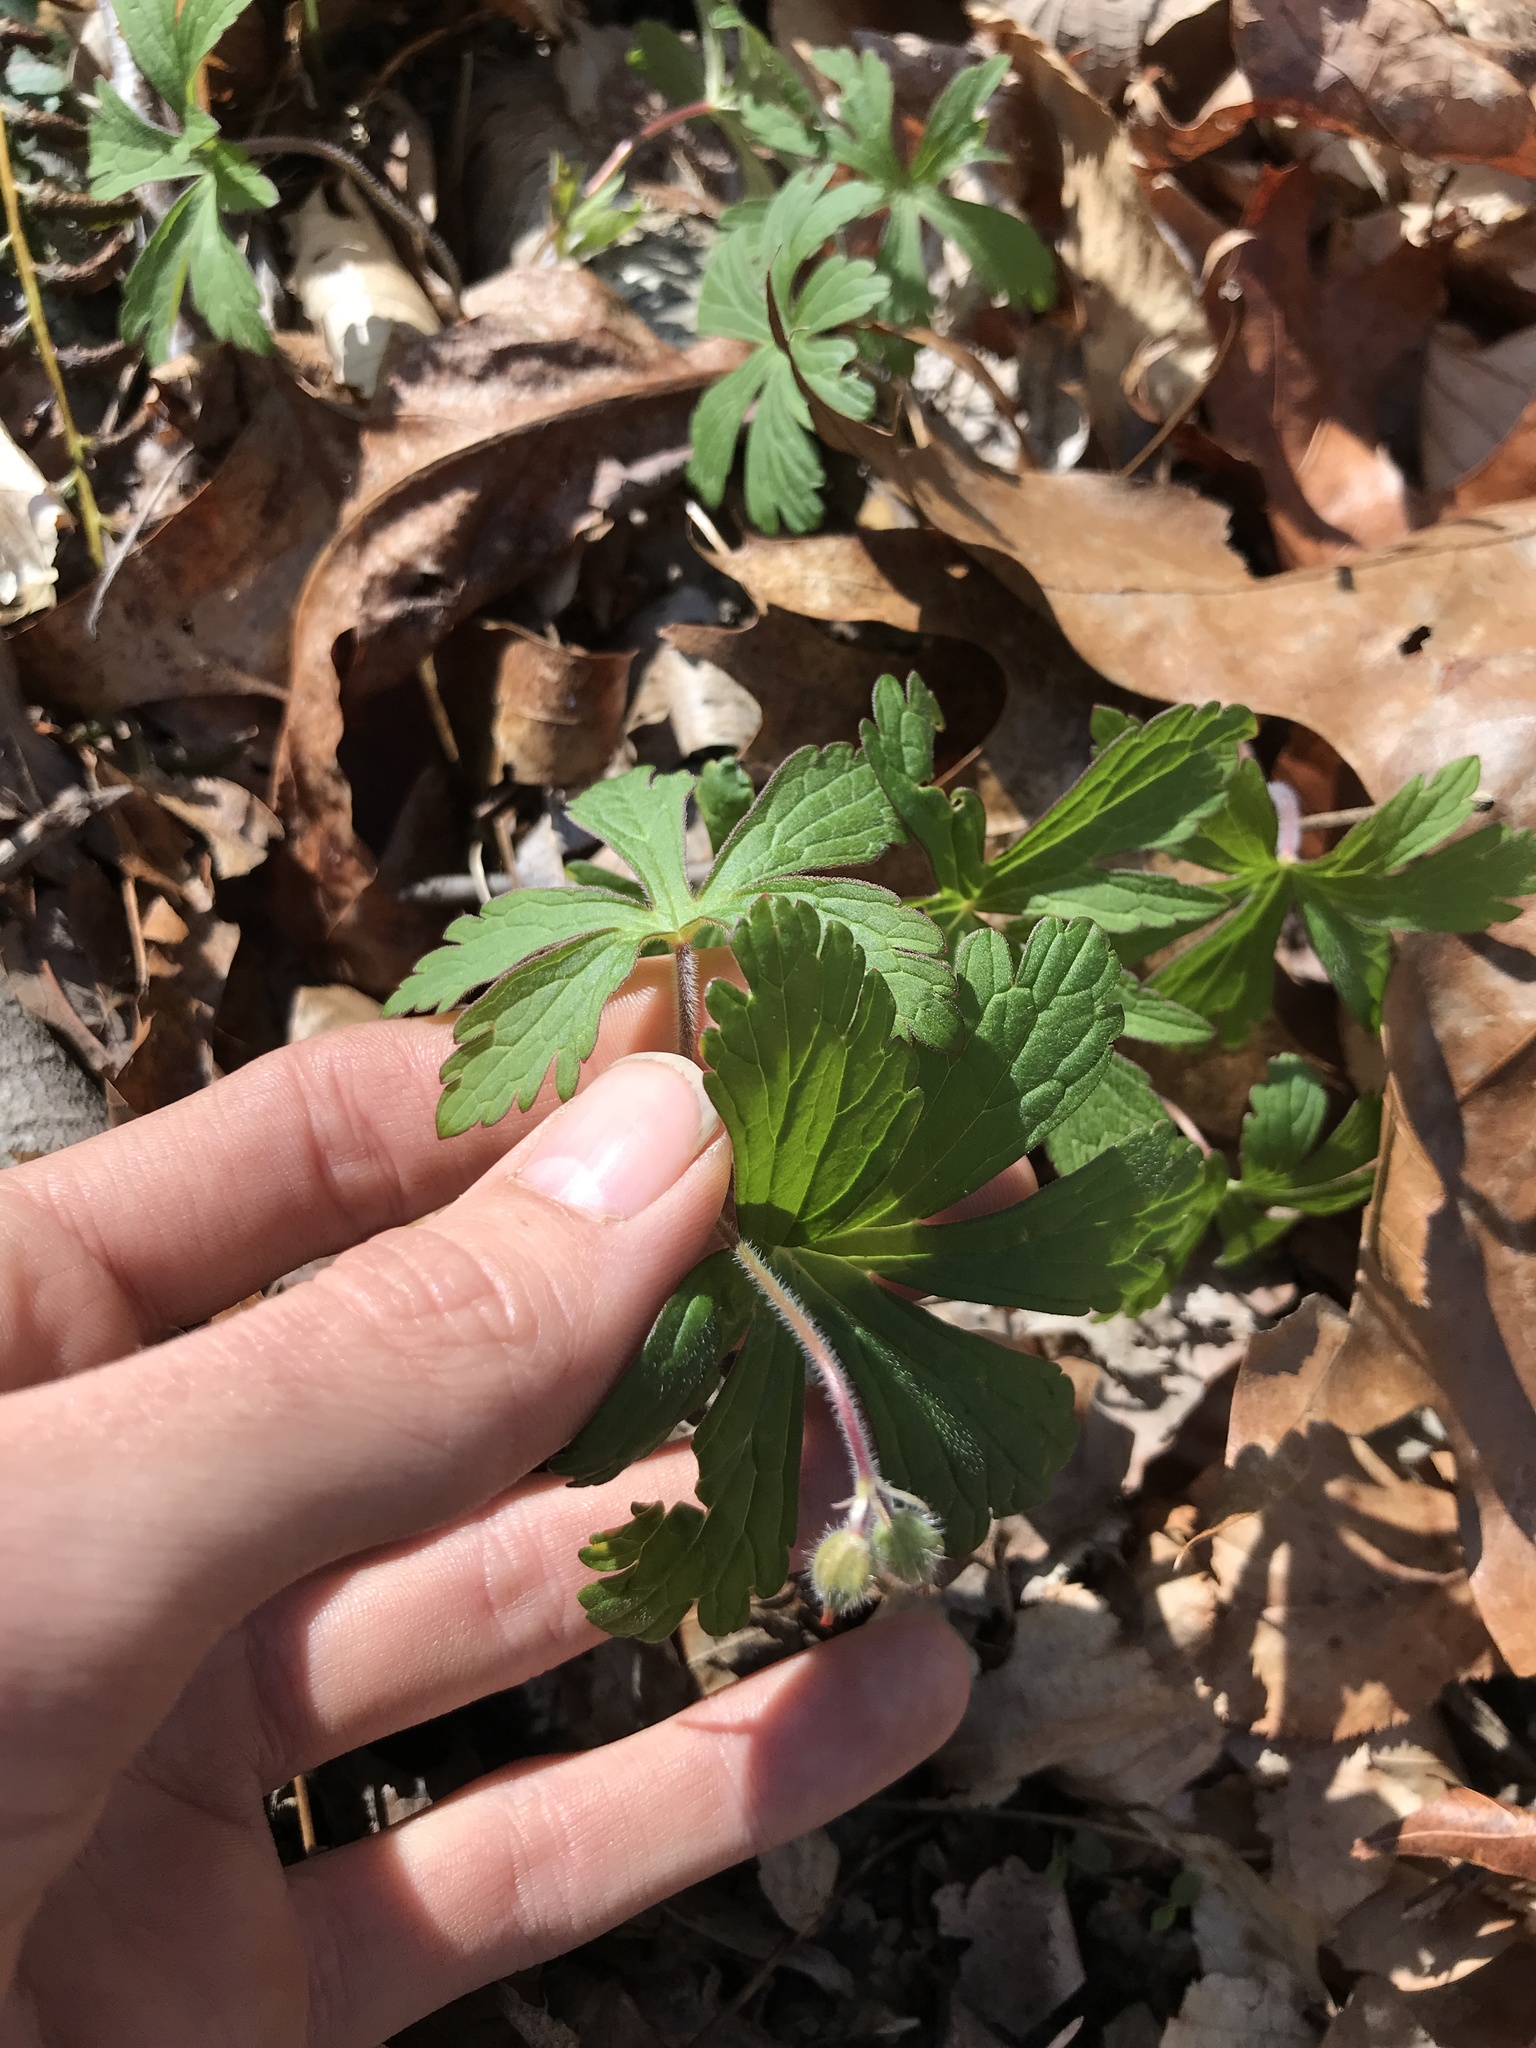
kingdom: Plantae
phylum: Tracheophyta
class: Magnoliopsida
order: Geraniales
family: Geraniaceae
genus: Geranium
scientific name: Geranium maculatum
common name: Spotted geranium
